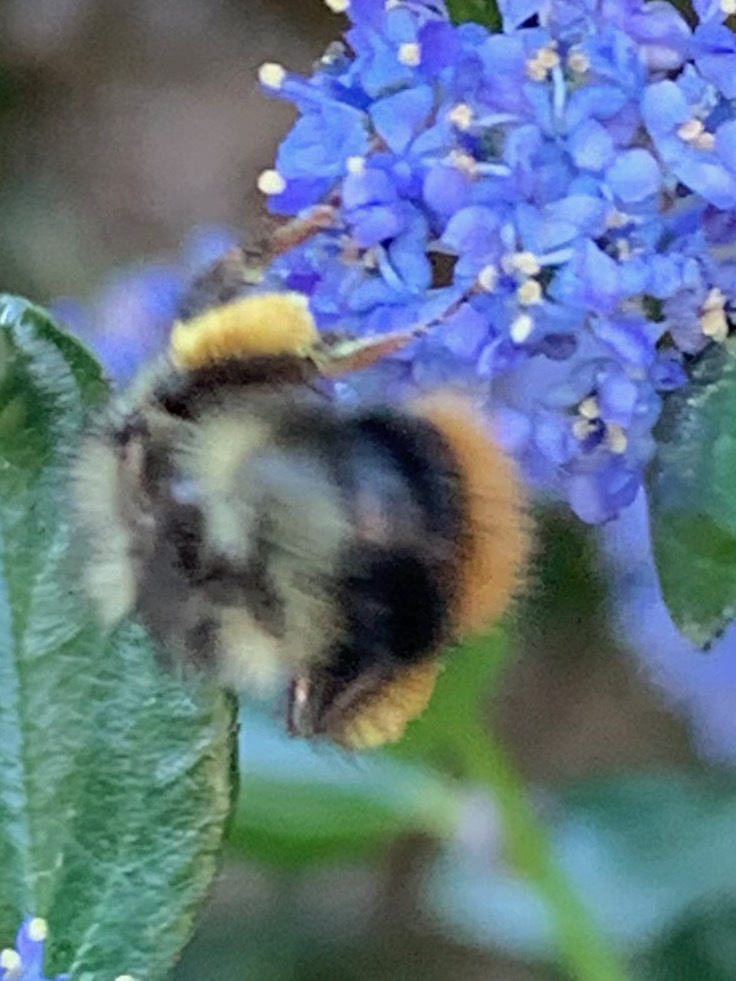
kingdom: Animalia
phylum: Arthropoda
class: Insecta
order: Hymenoptera
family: Apidae
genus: Bombus
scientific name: Bombus mixtus
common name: Fuzzy-horned bumble bee
